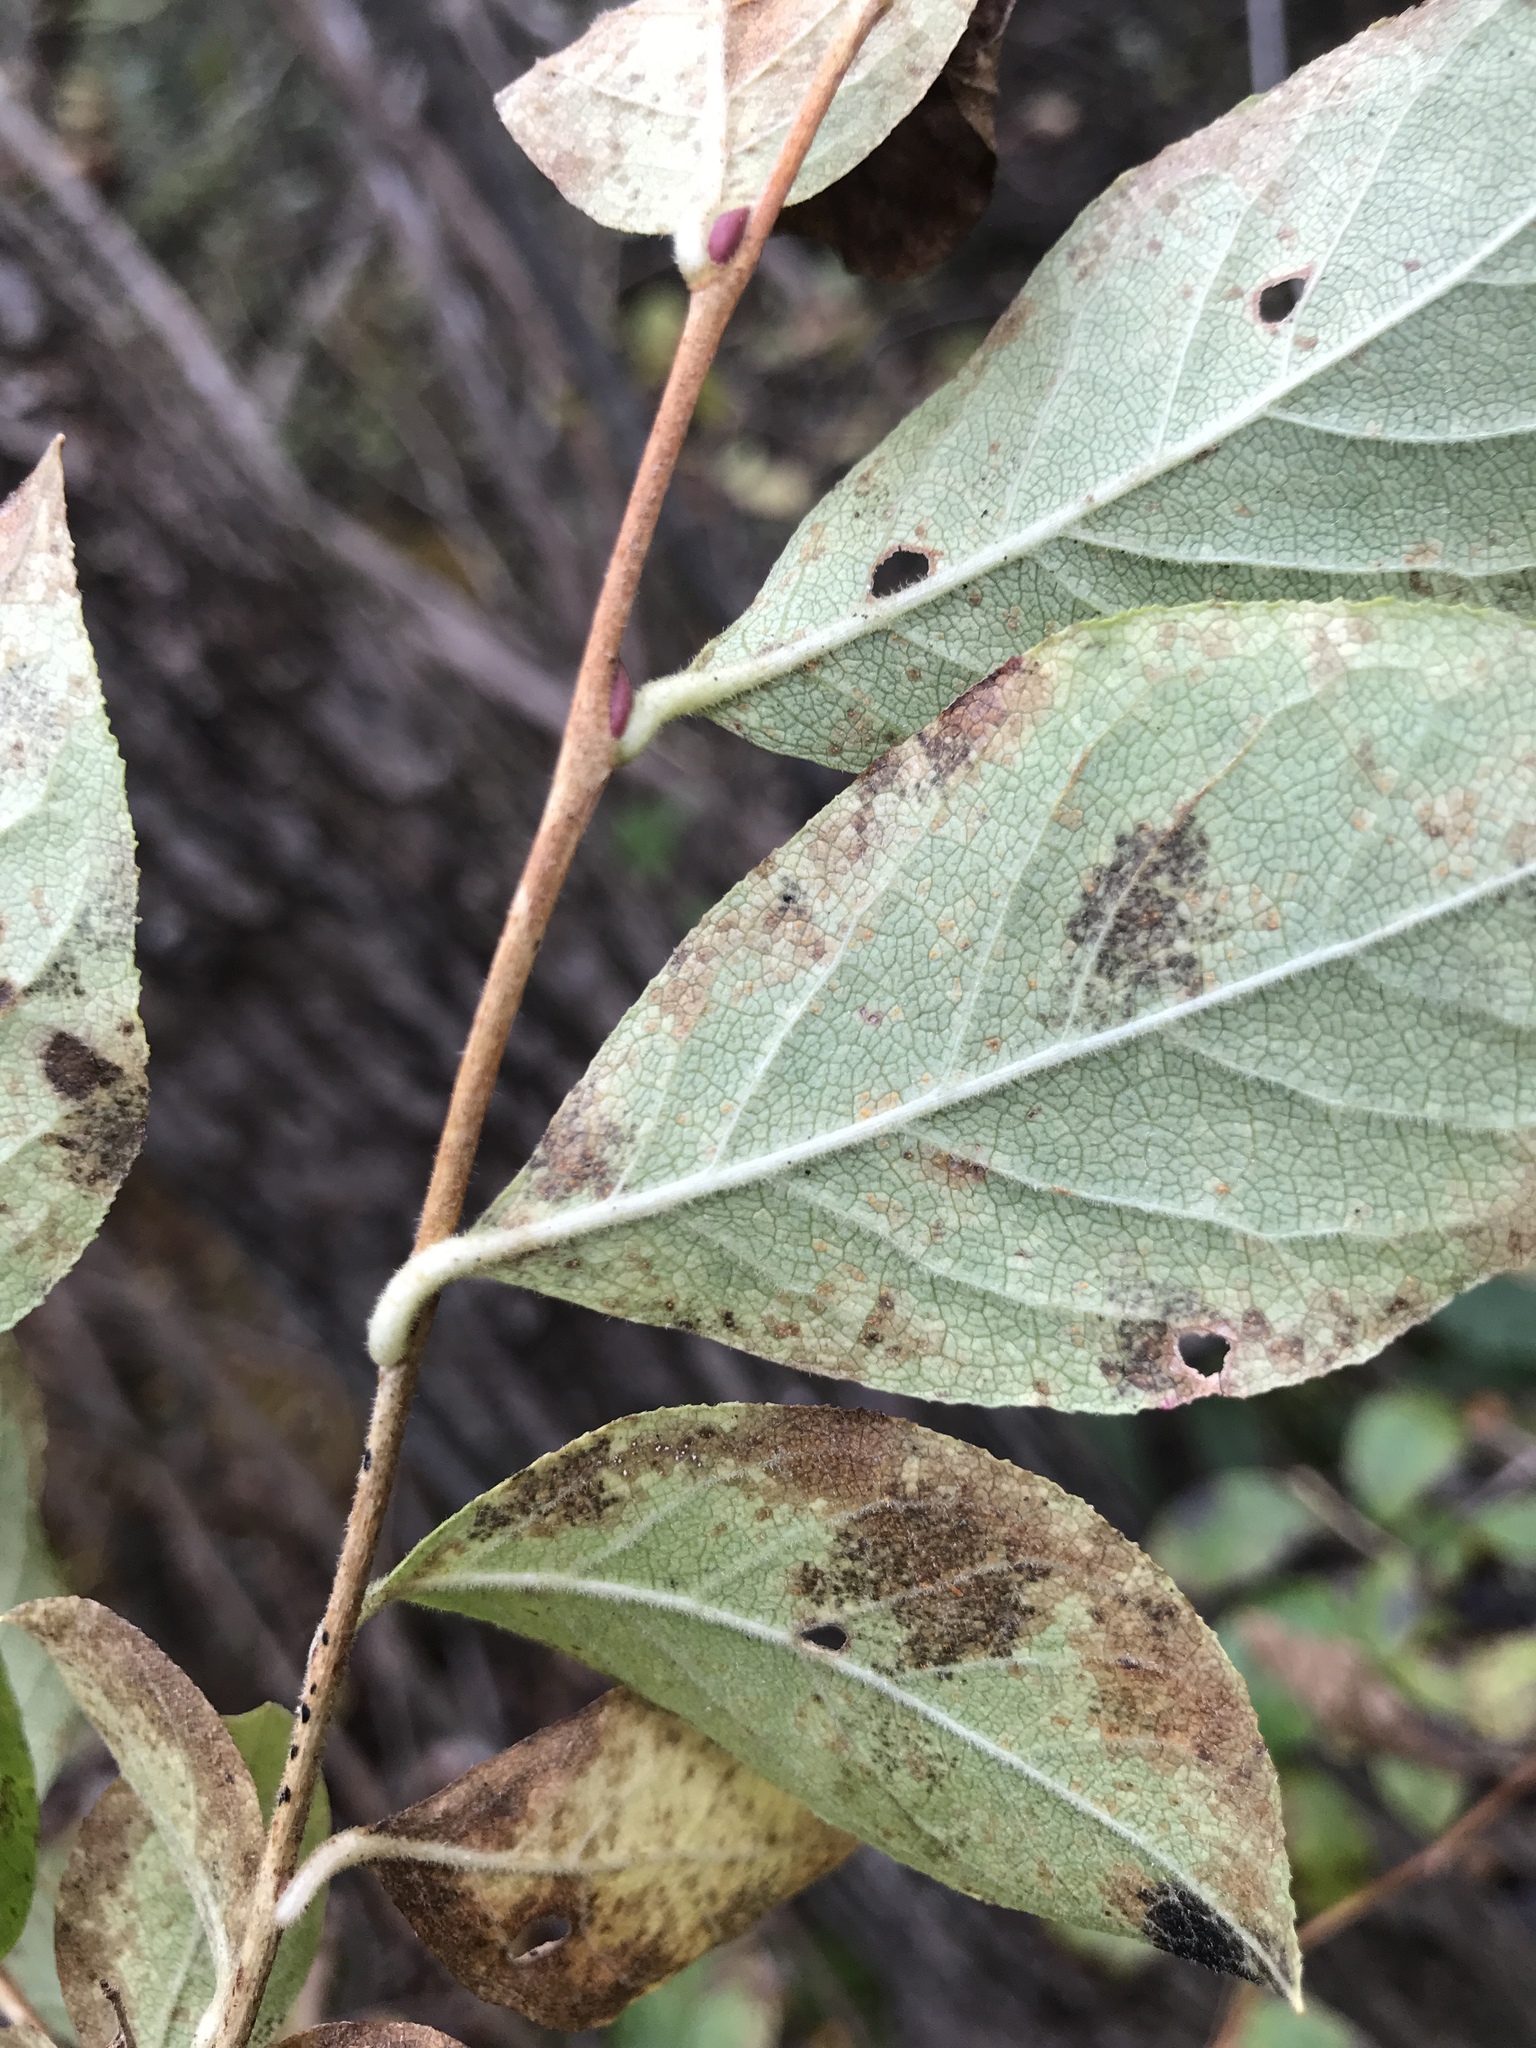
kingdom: Plantae
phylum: Tracheophyta
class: Magnoliopsida
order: Ericales
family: Ericaceae
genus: Lyonia
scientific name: Lyonia ligustrina
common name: Maleberry
